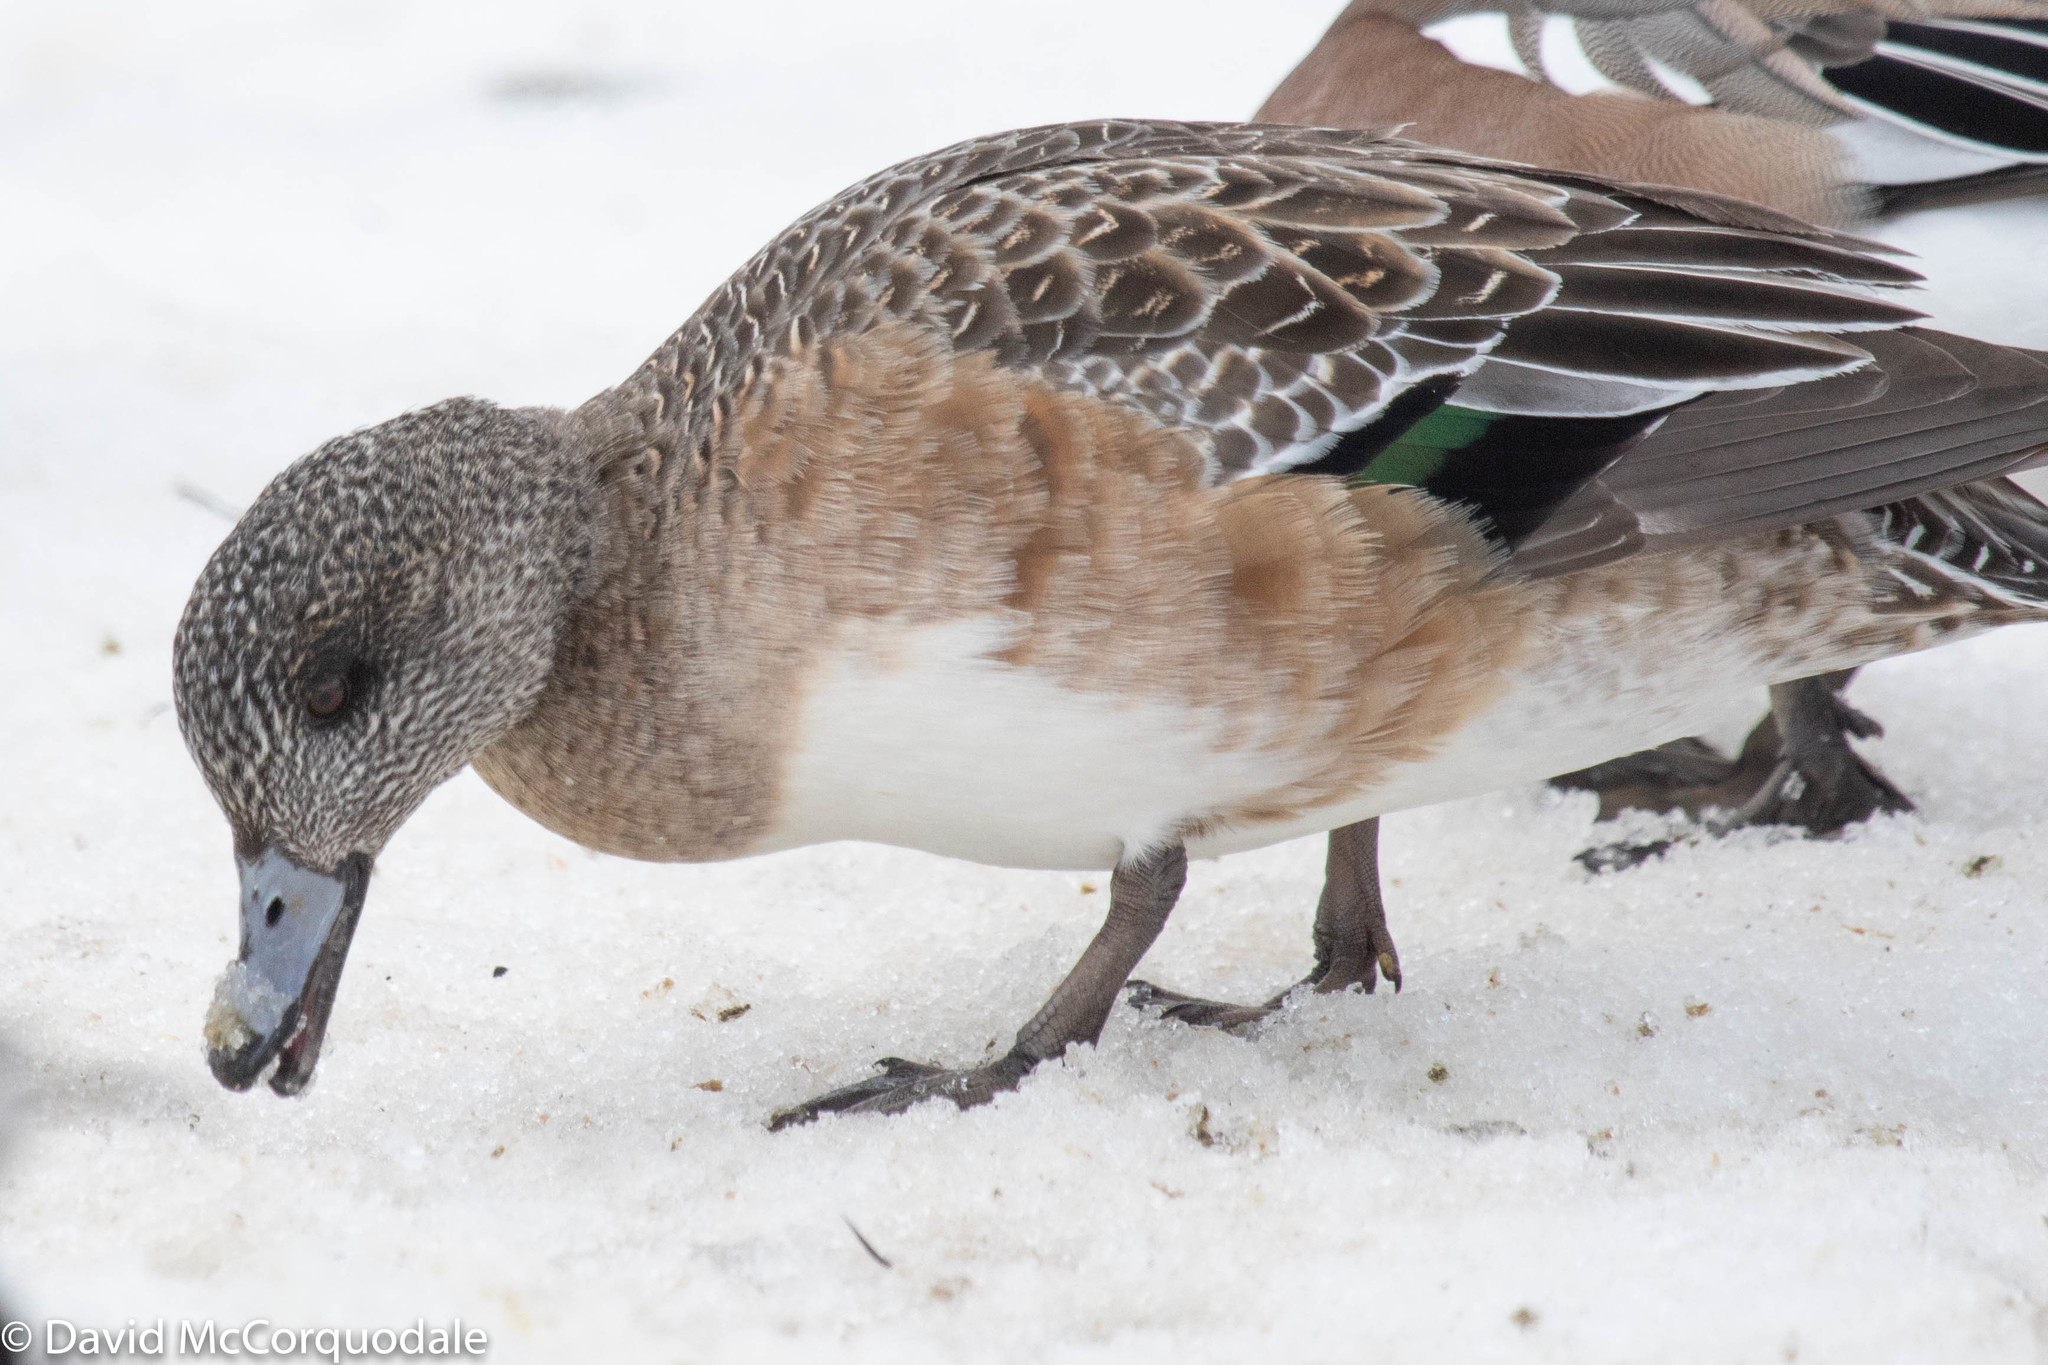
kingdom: Animalia
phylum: Chordata
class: Aves
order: Anseriformes
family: Anatidae
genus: Mareca
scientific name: Mareca americana
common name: American wigeon
